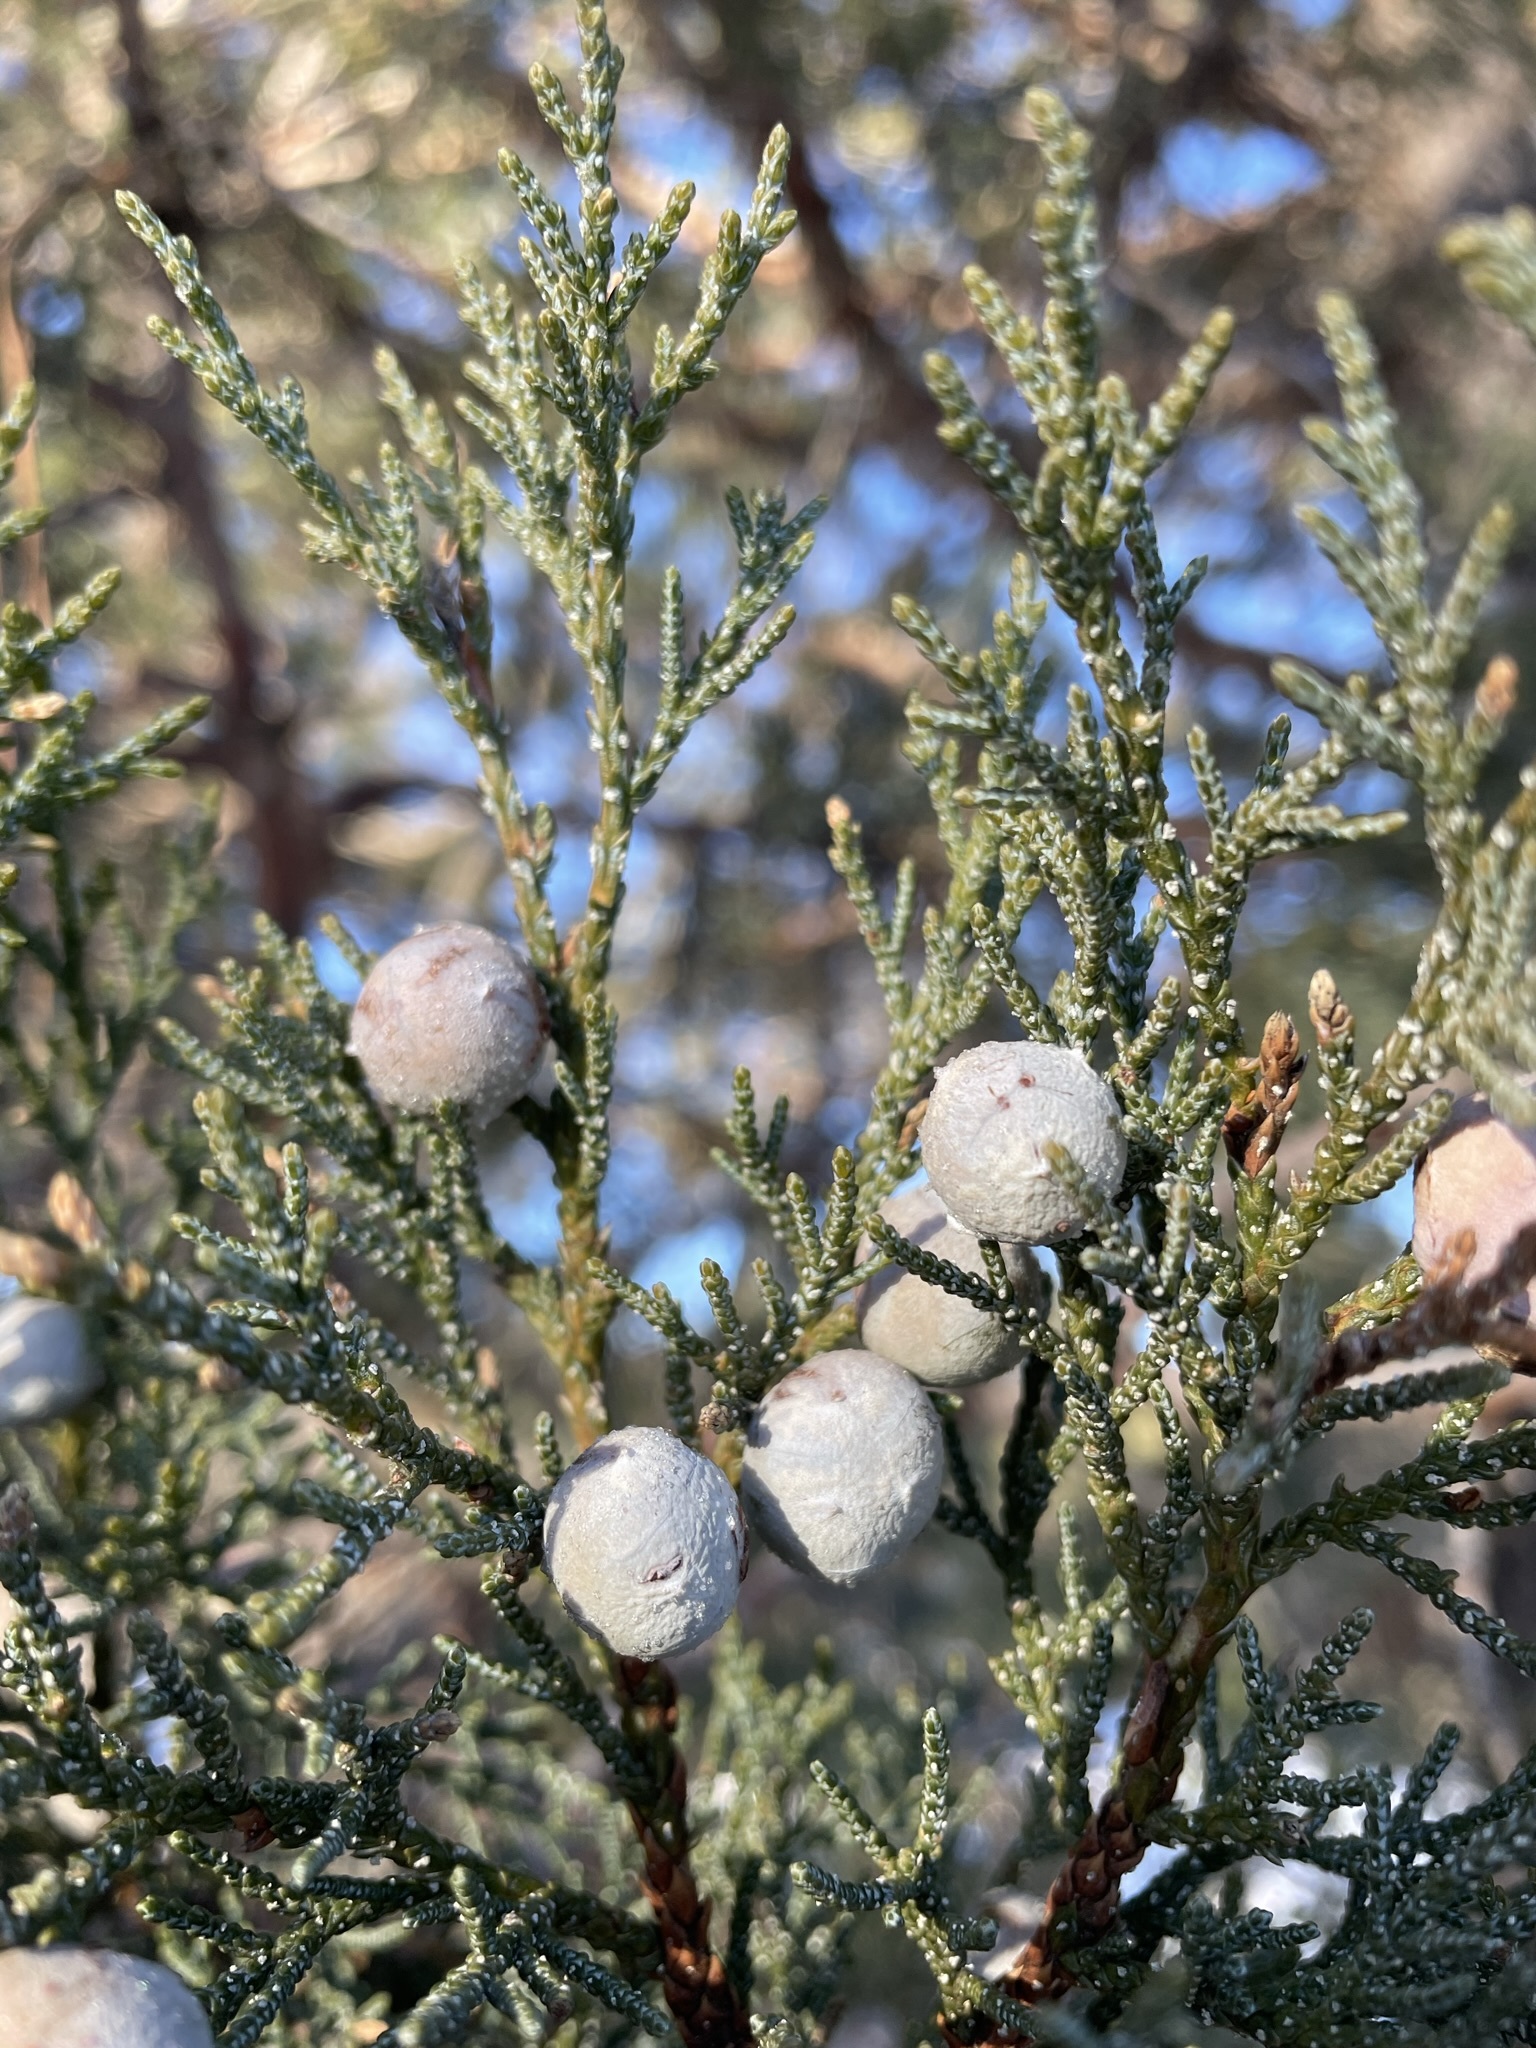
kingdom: Plantae
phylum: Tracheophyta
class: Pinopsida
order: Pinales
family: Cupressaceae
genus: Juniperus
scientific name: Juniperus deppeana
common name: Alligator juniper
